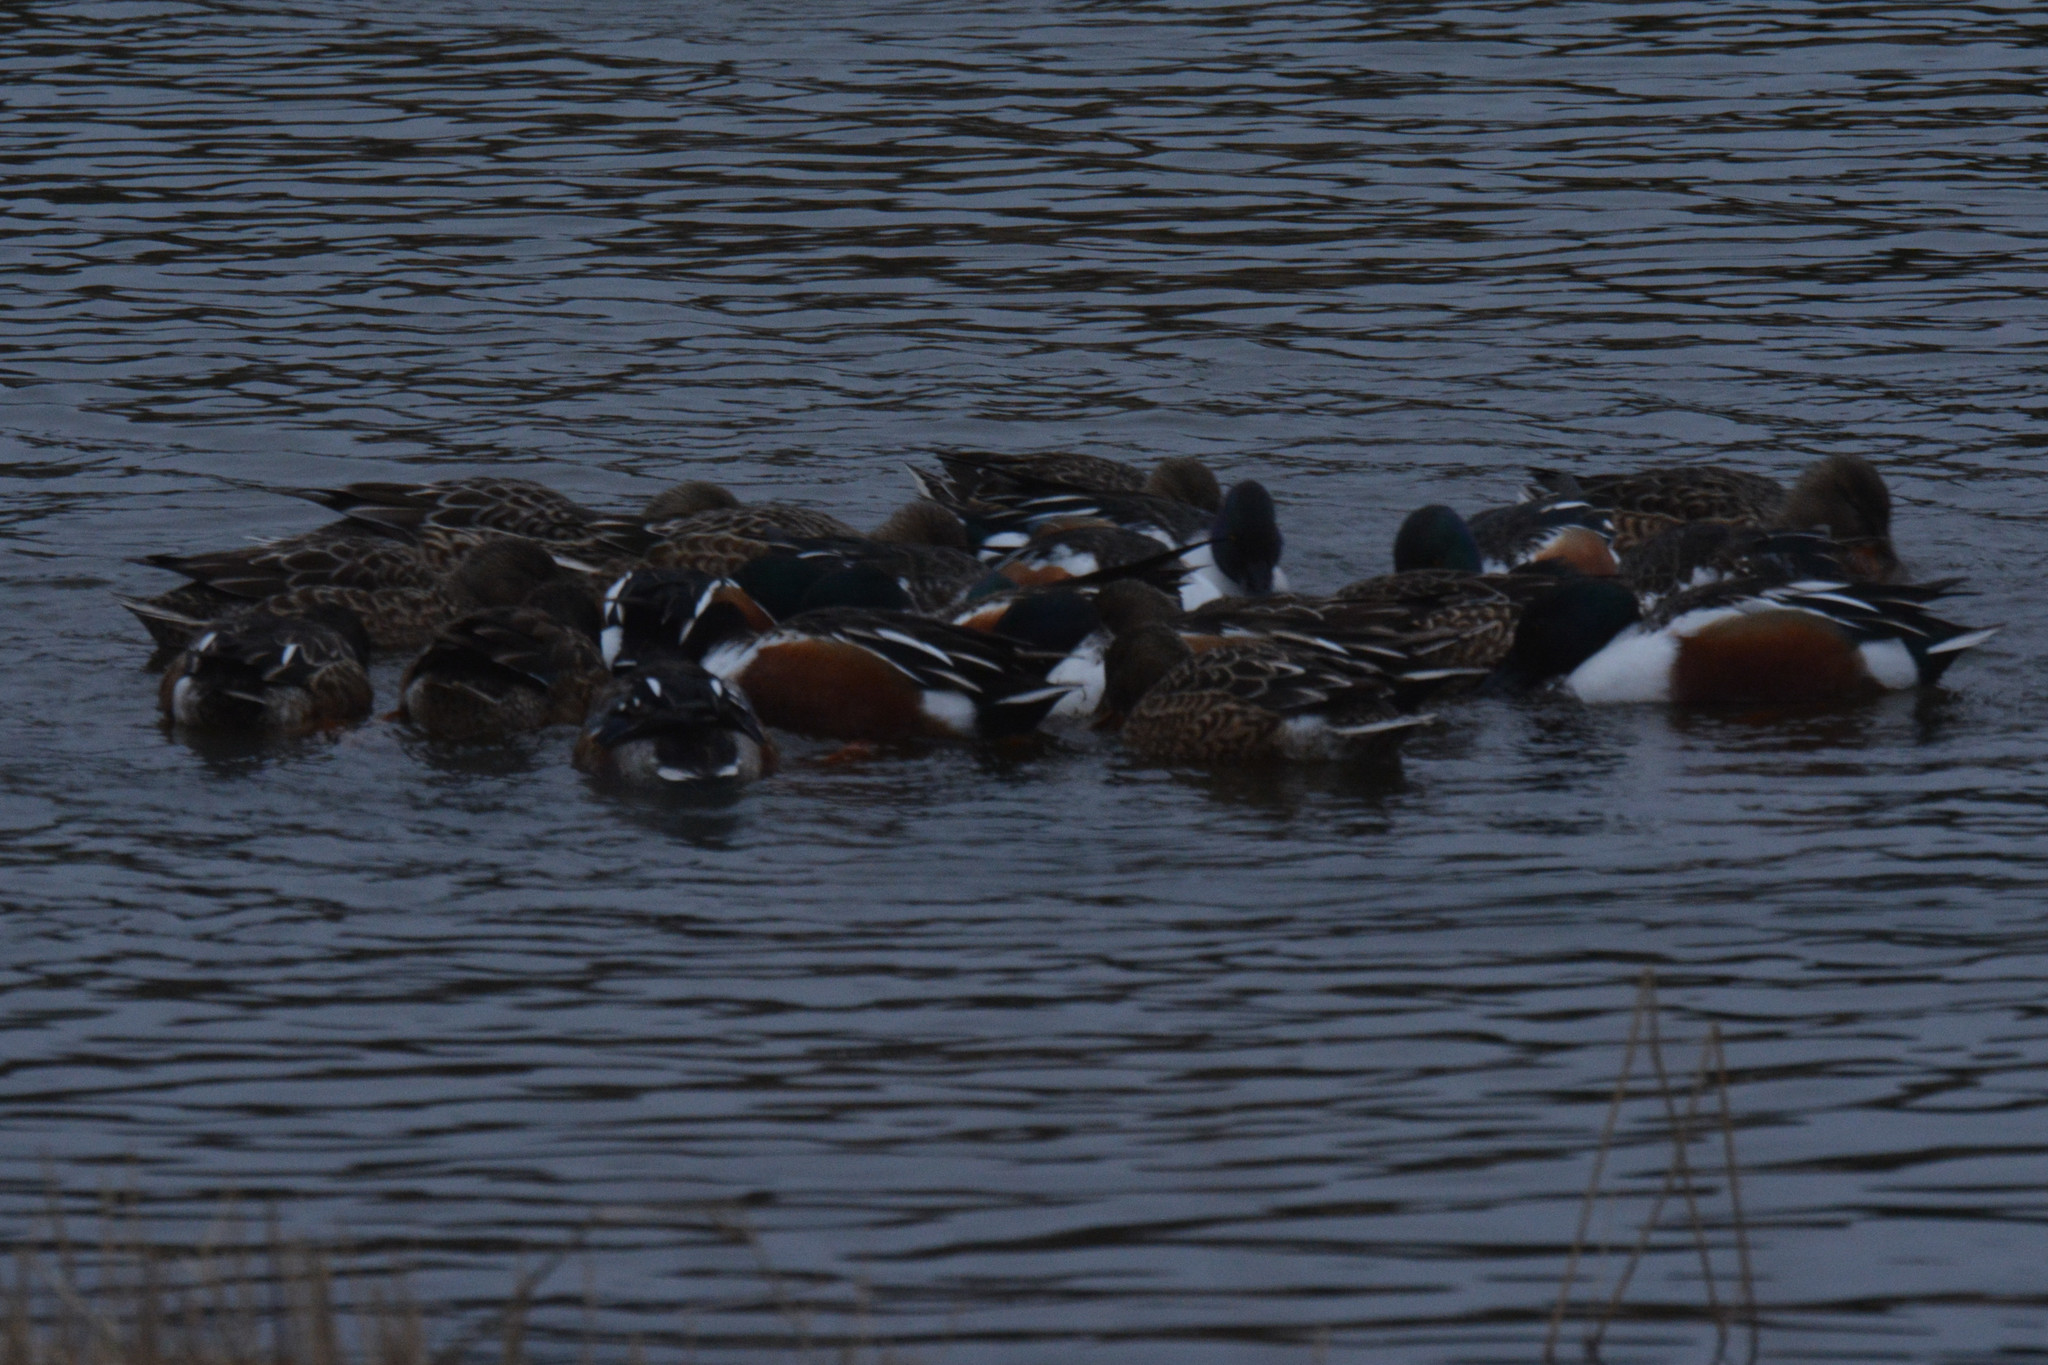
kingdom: Animalia
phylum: Chordata
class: Aves
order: Anseriformes
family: Anatidae
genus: Spatula
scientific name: Spatula clypeata
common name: Northern shoveler
